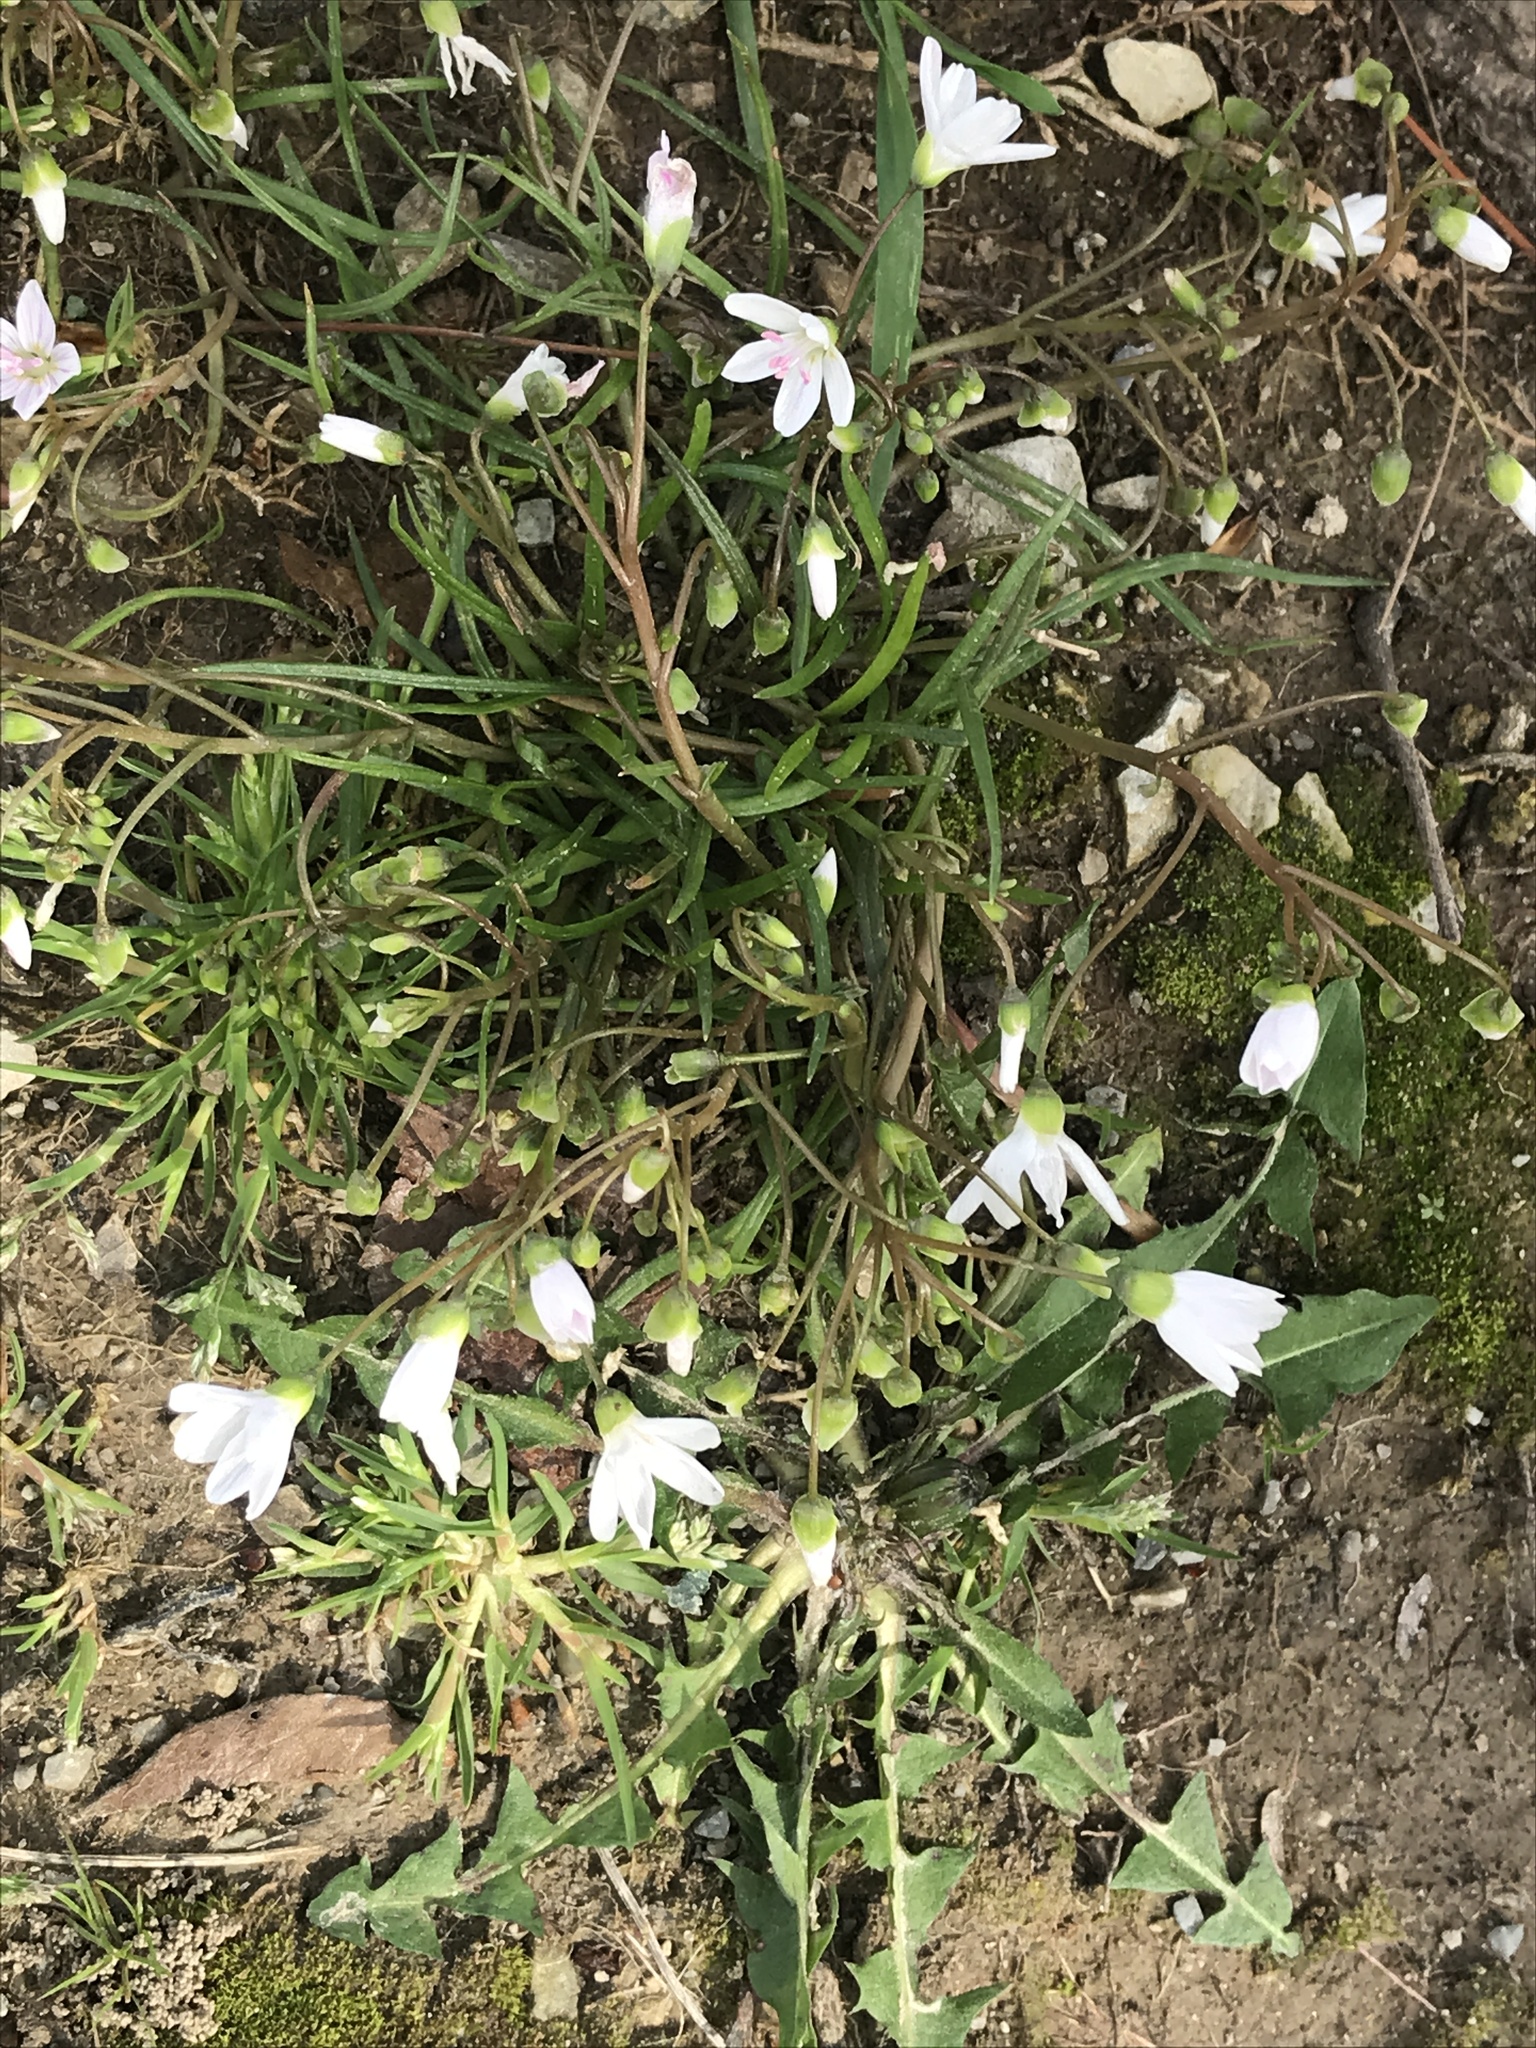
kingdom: Plantae
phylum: Tracheophyta
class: Magnoliopsida
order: Caryophyllales
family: Montiaceae
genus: Claytonia
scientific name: Claytonia virginica
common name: Virginia springbeauty
